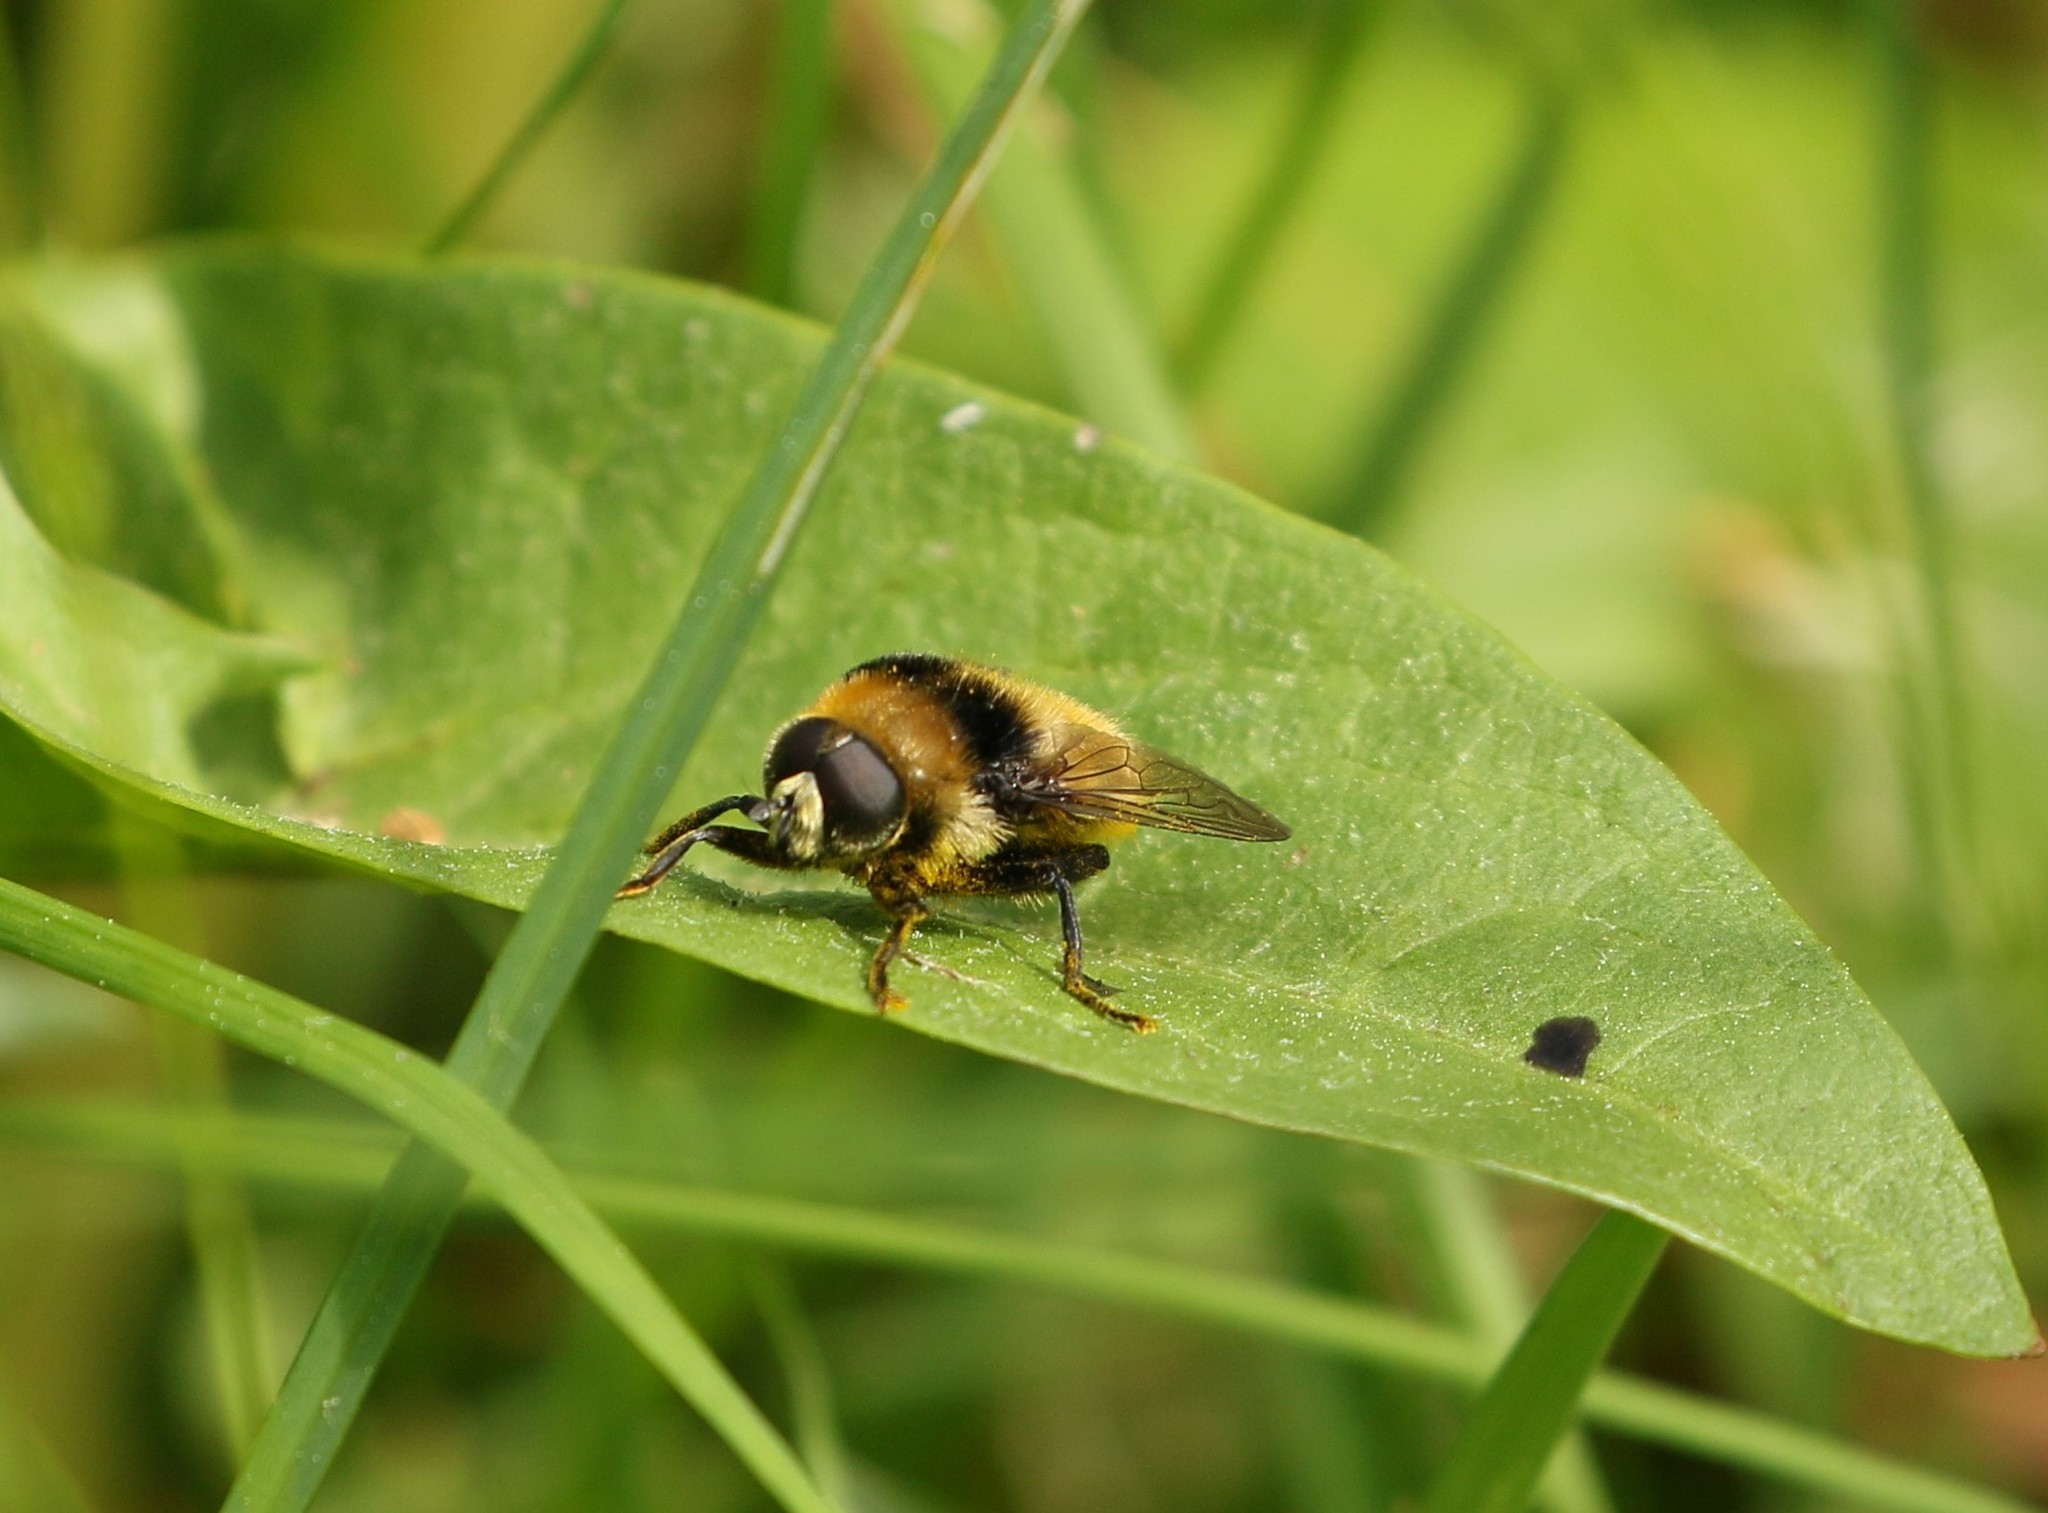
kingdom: Animalia
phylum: Arthropoda
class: Insecta
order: Diptera
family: Syrphidae
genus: Merodon
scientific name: Merodon equestris
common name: Greater bulb-fly
